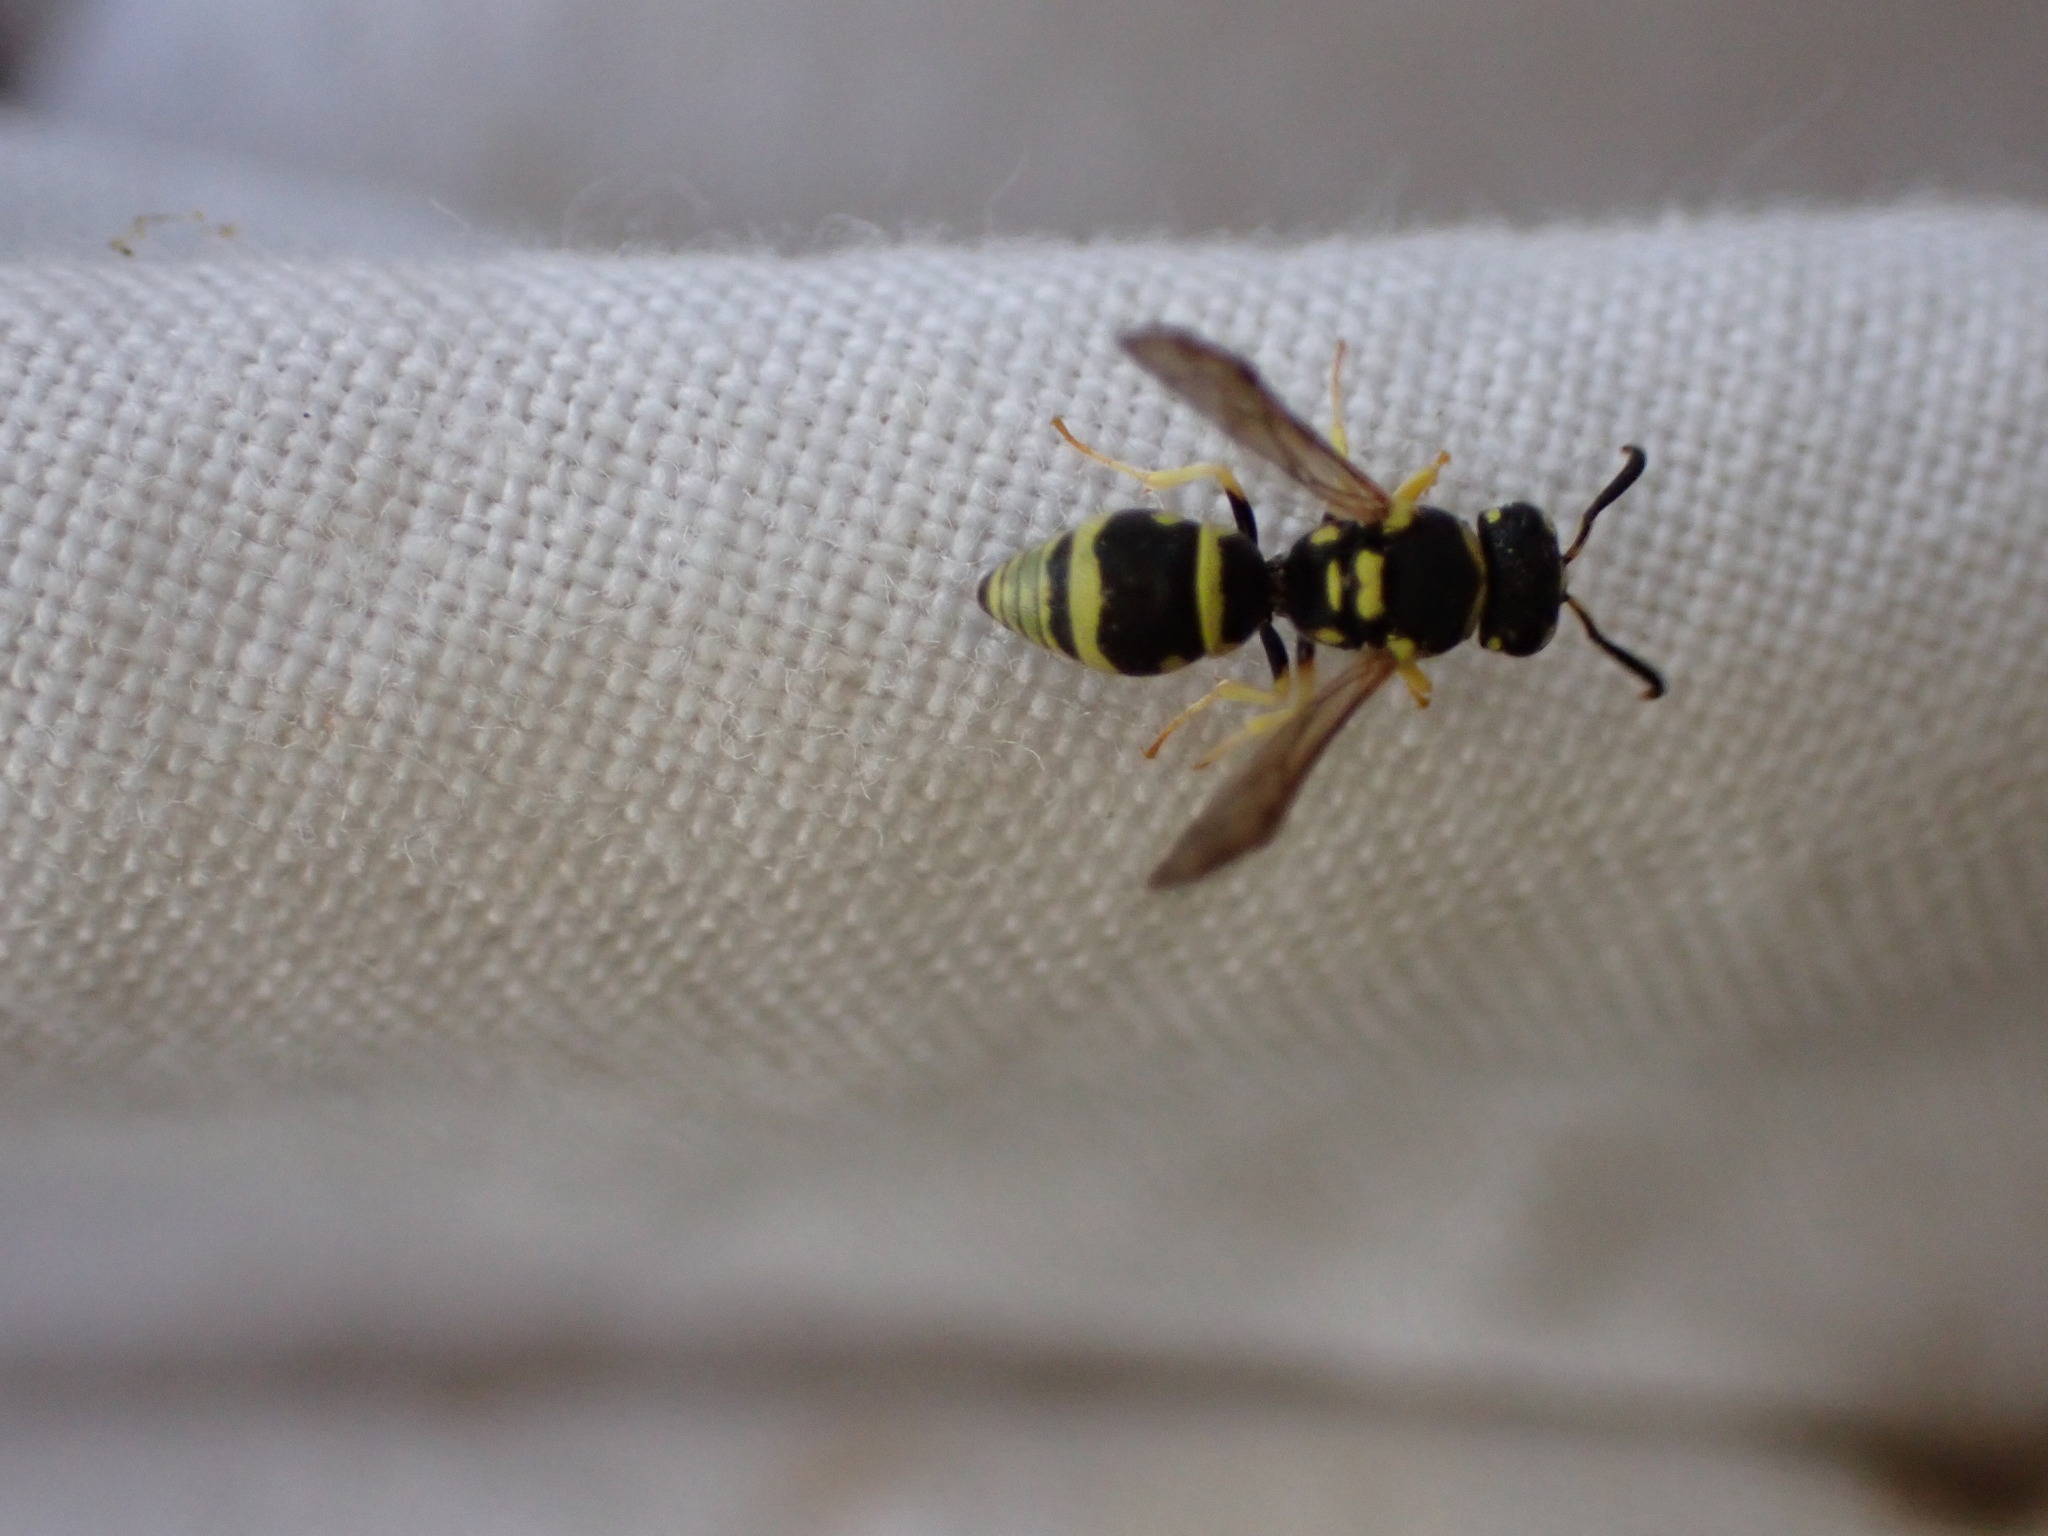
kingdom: Animalia
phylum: Arthropoda
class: Insecta
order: Hymenoptera
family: Eumenidae
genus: Antepipona
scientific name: Antepipona deflenda
